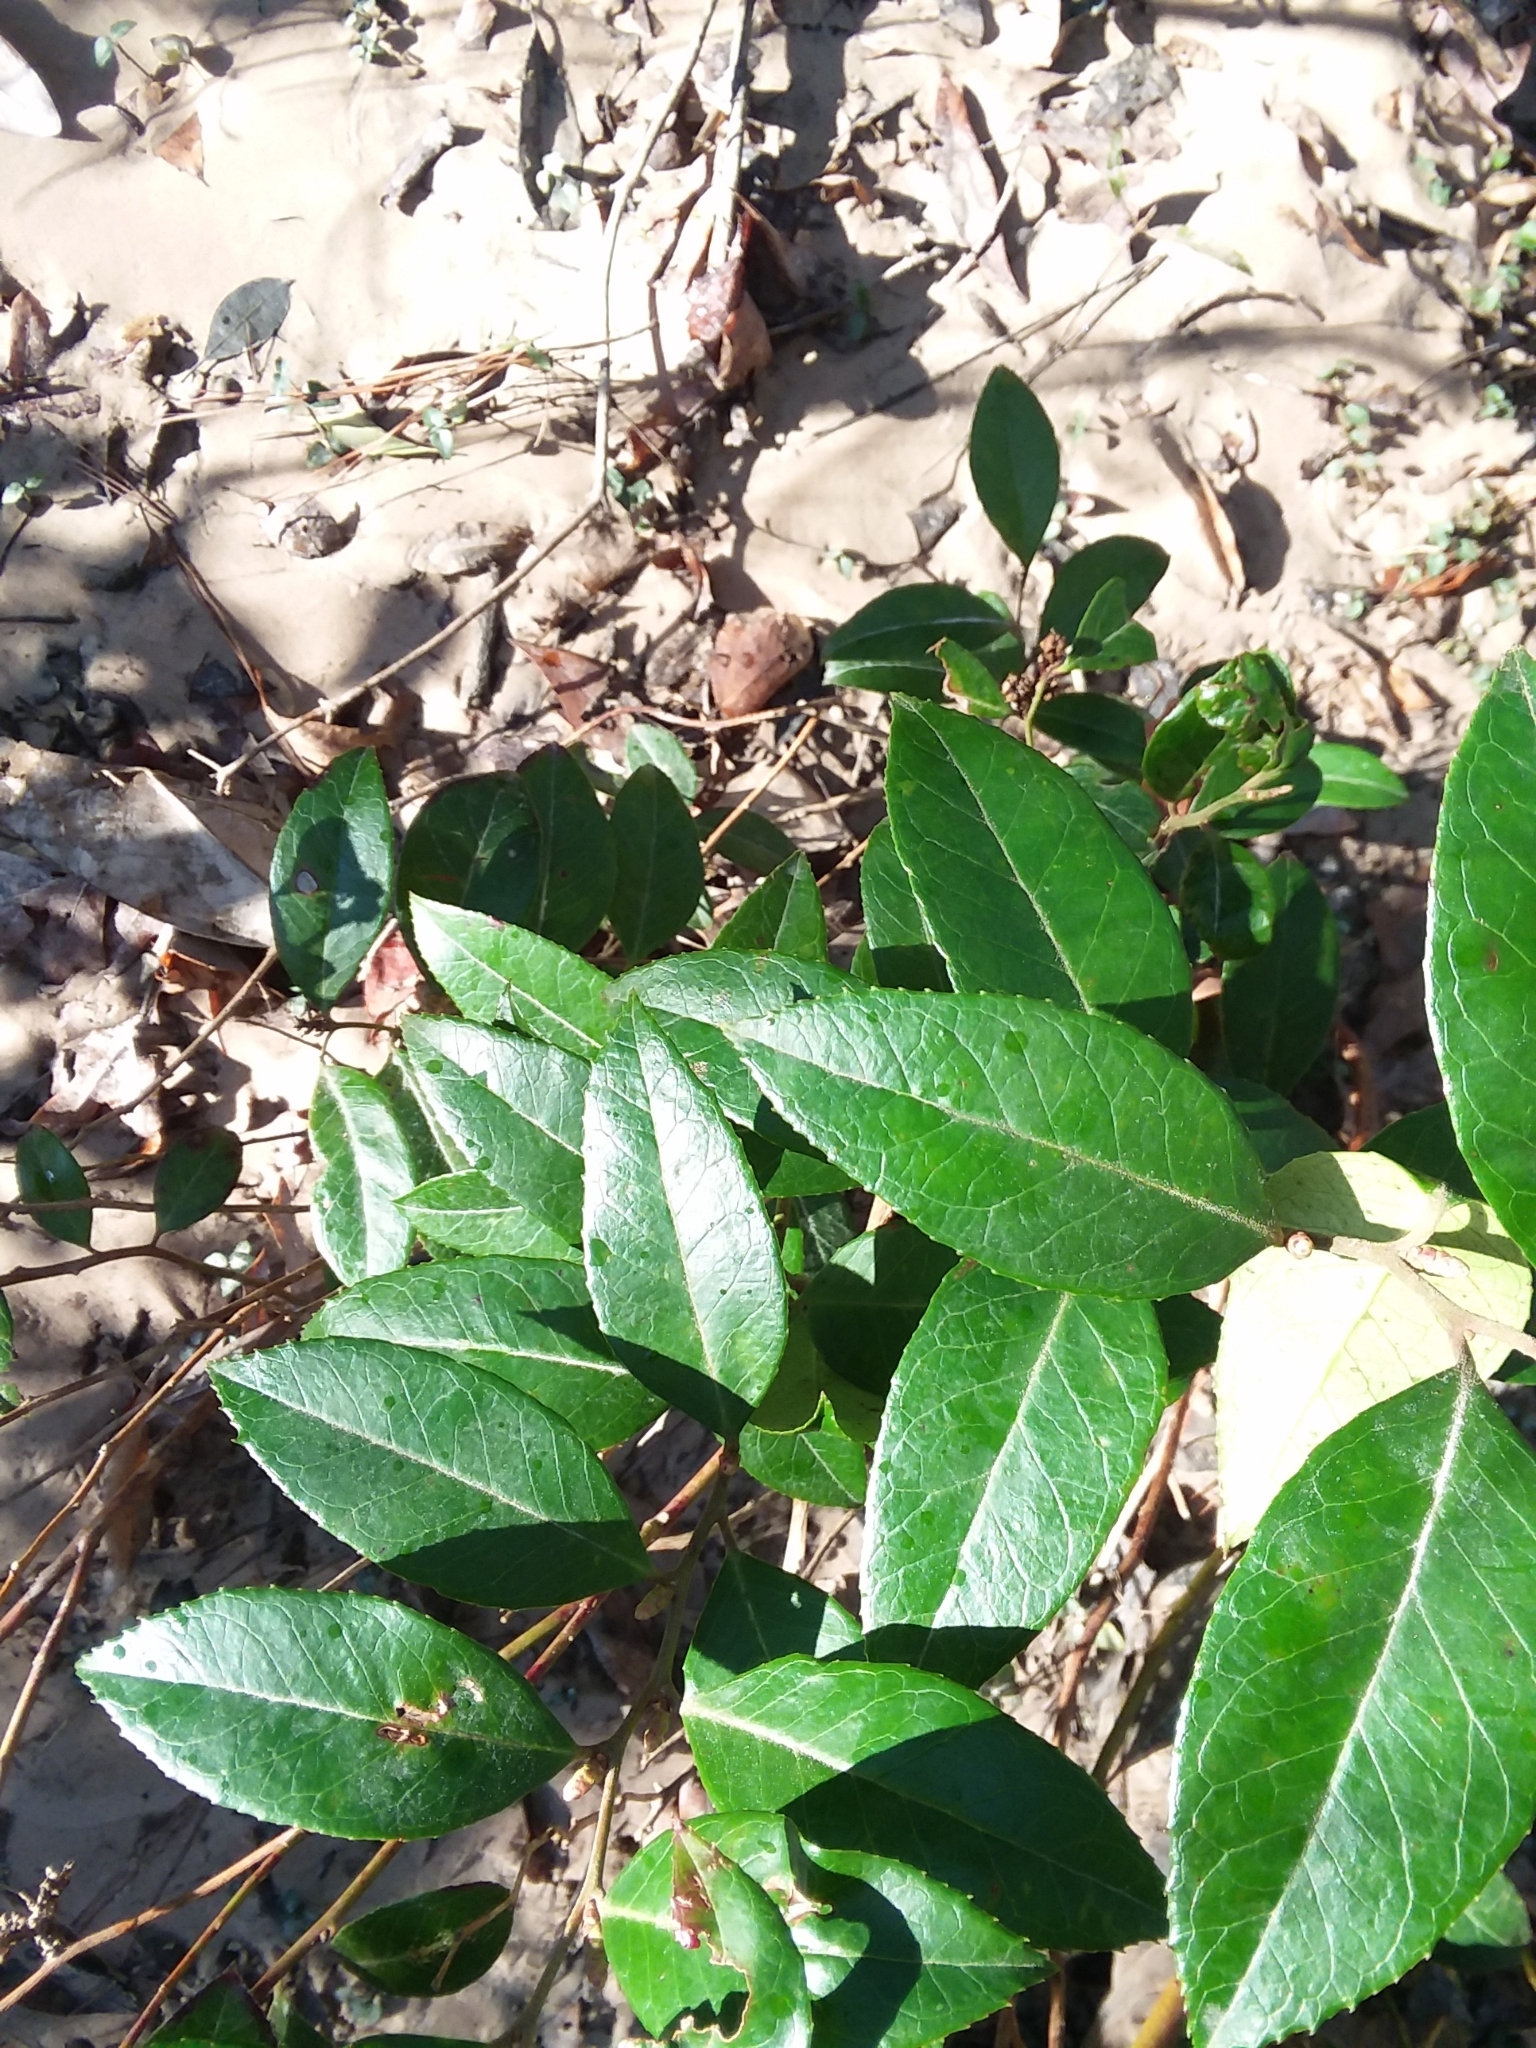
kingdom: Plantae
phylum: Tracheophyta
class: Magnoliopsida
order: Ericales
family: Ericaceae
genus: Leucothoe
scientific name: Leucothoe axillaris
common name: Leucothoe
